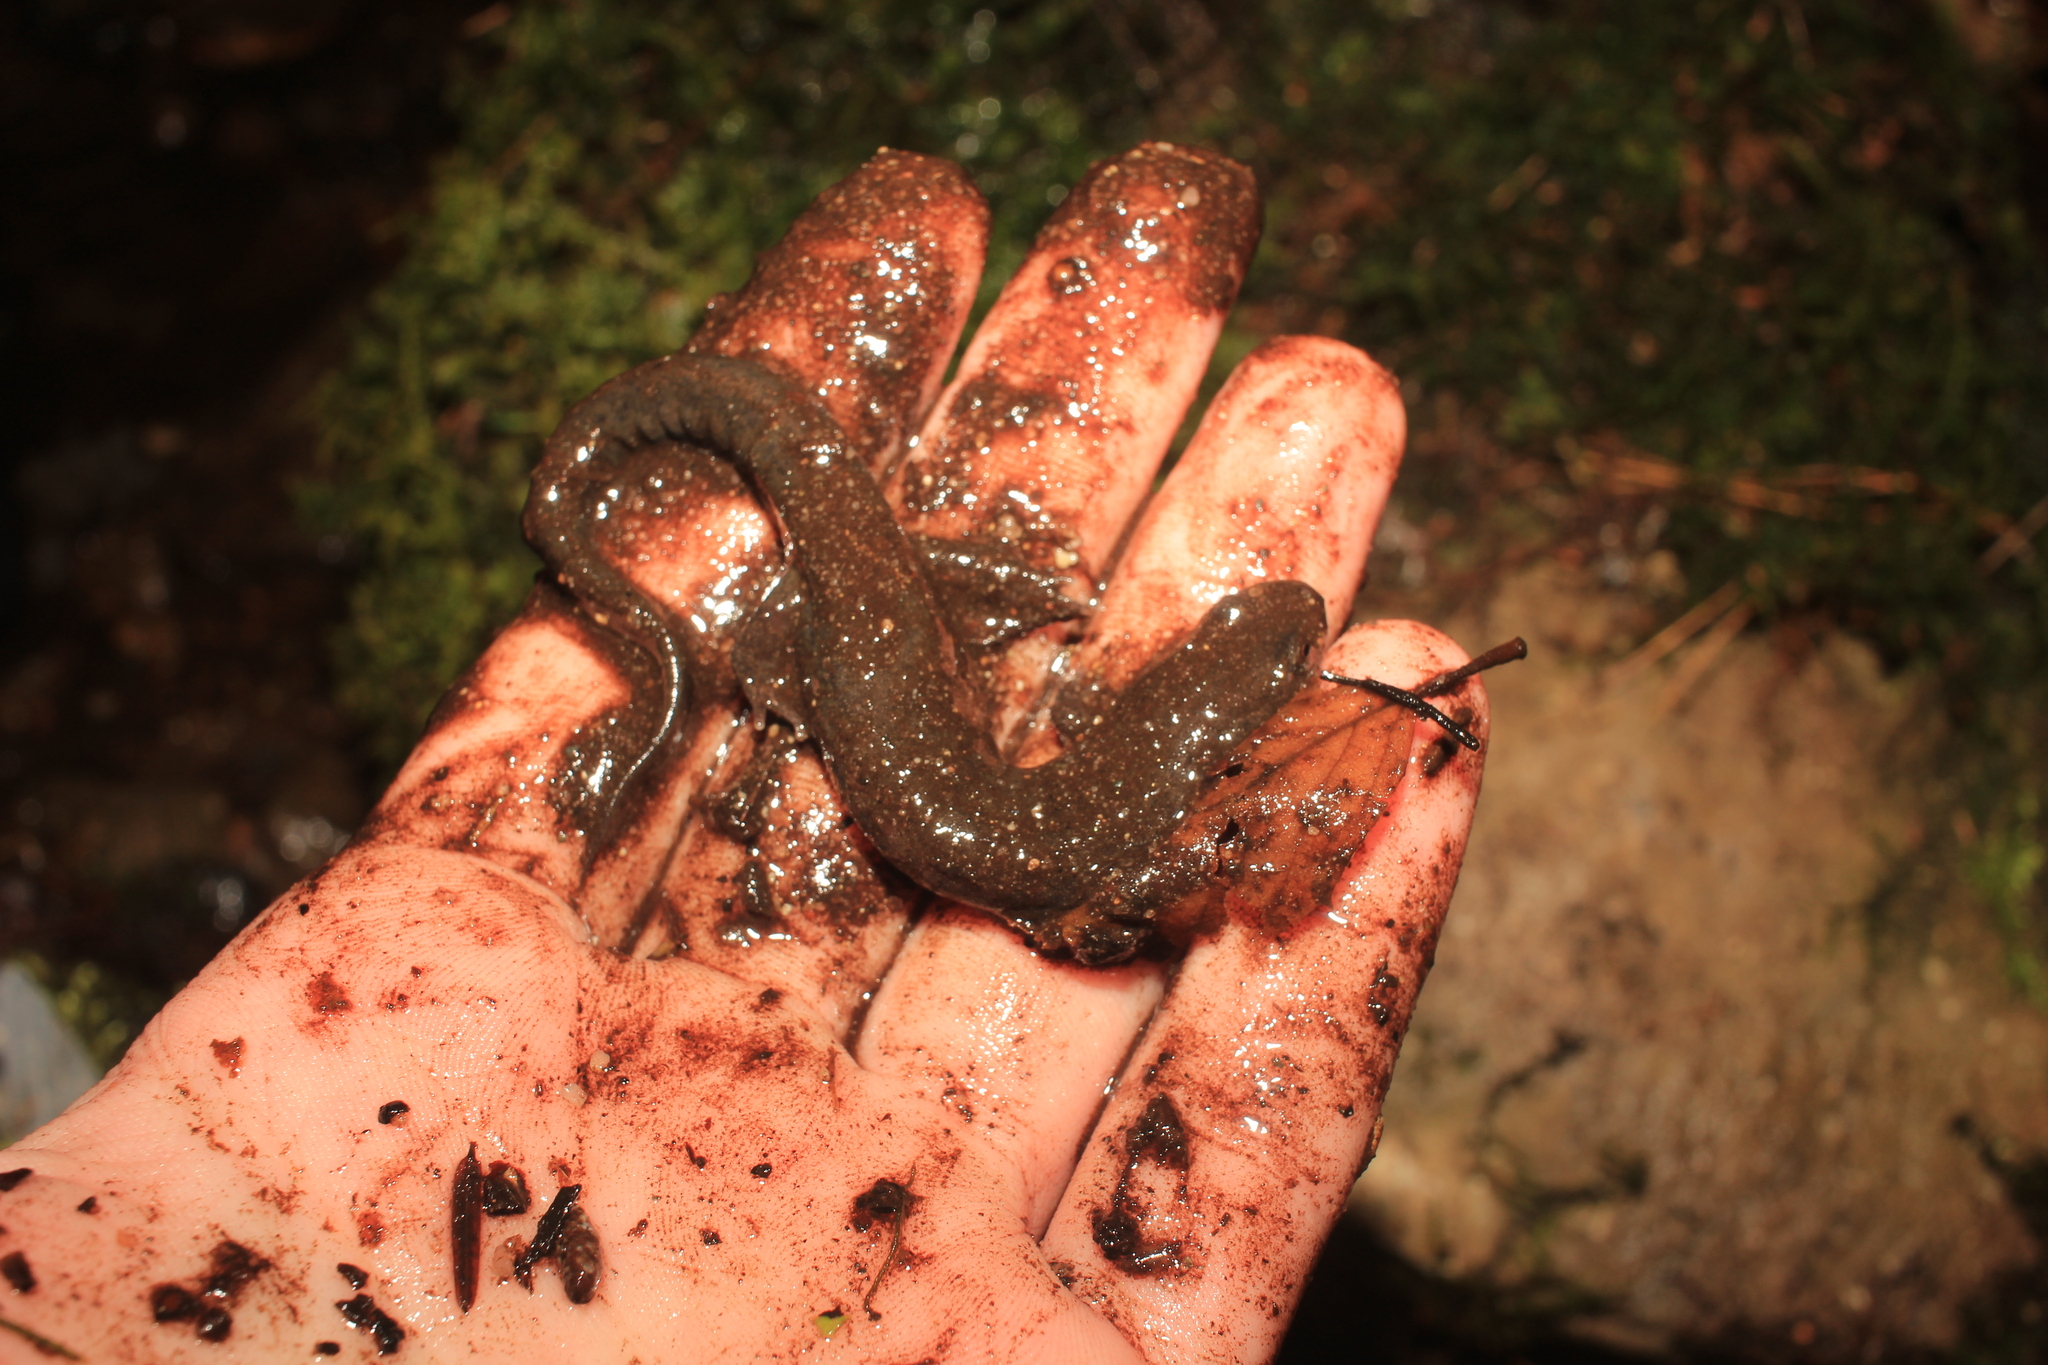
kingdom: Animalia
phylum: Chordata
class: Amphibia
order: Caudata
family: Plethodontidae
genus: Desmognathus
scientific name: Desmognathus fuscus
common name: Northern dusky salamander
